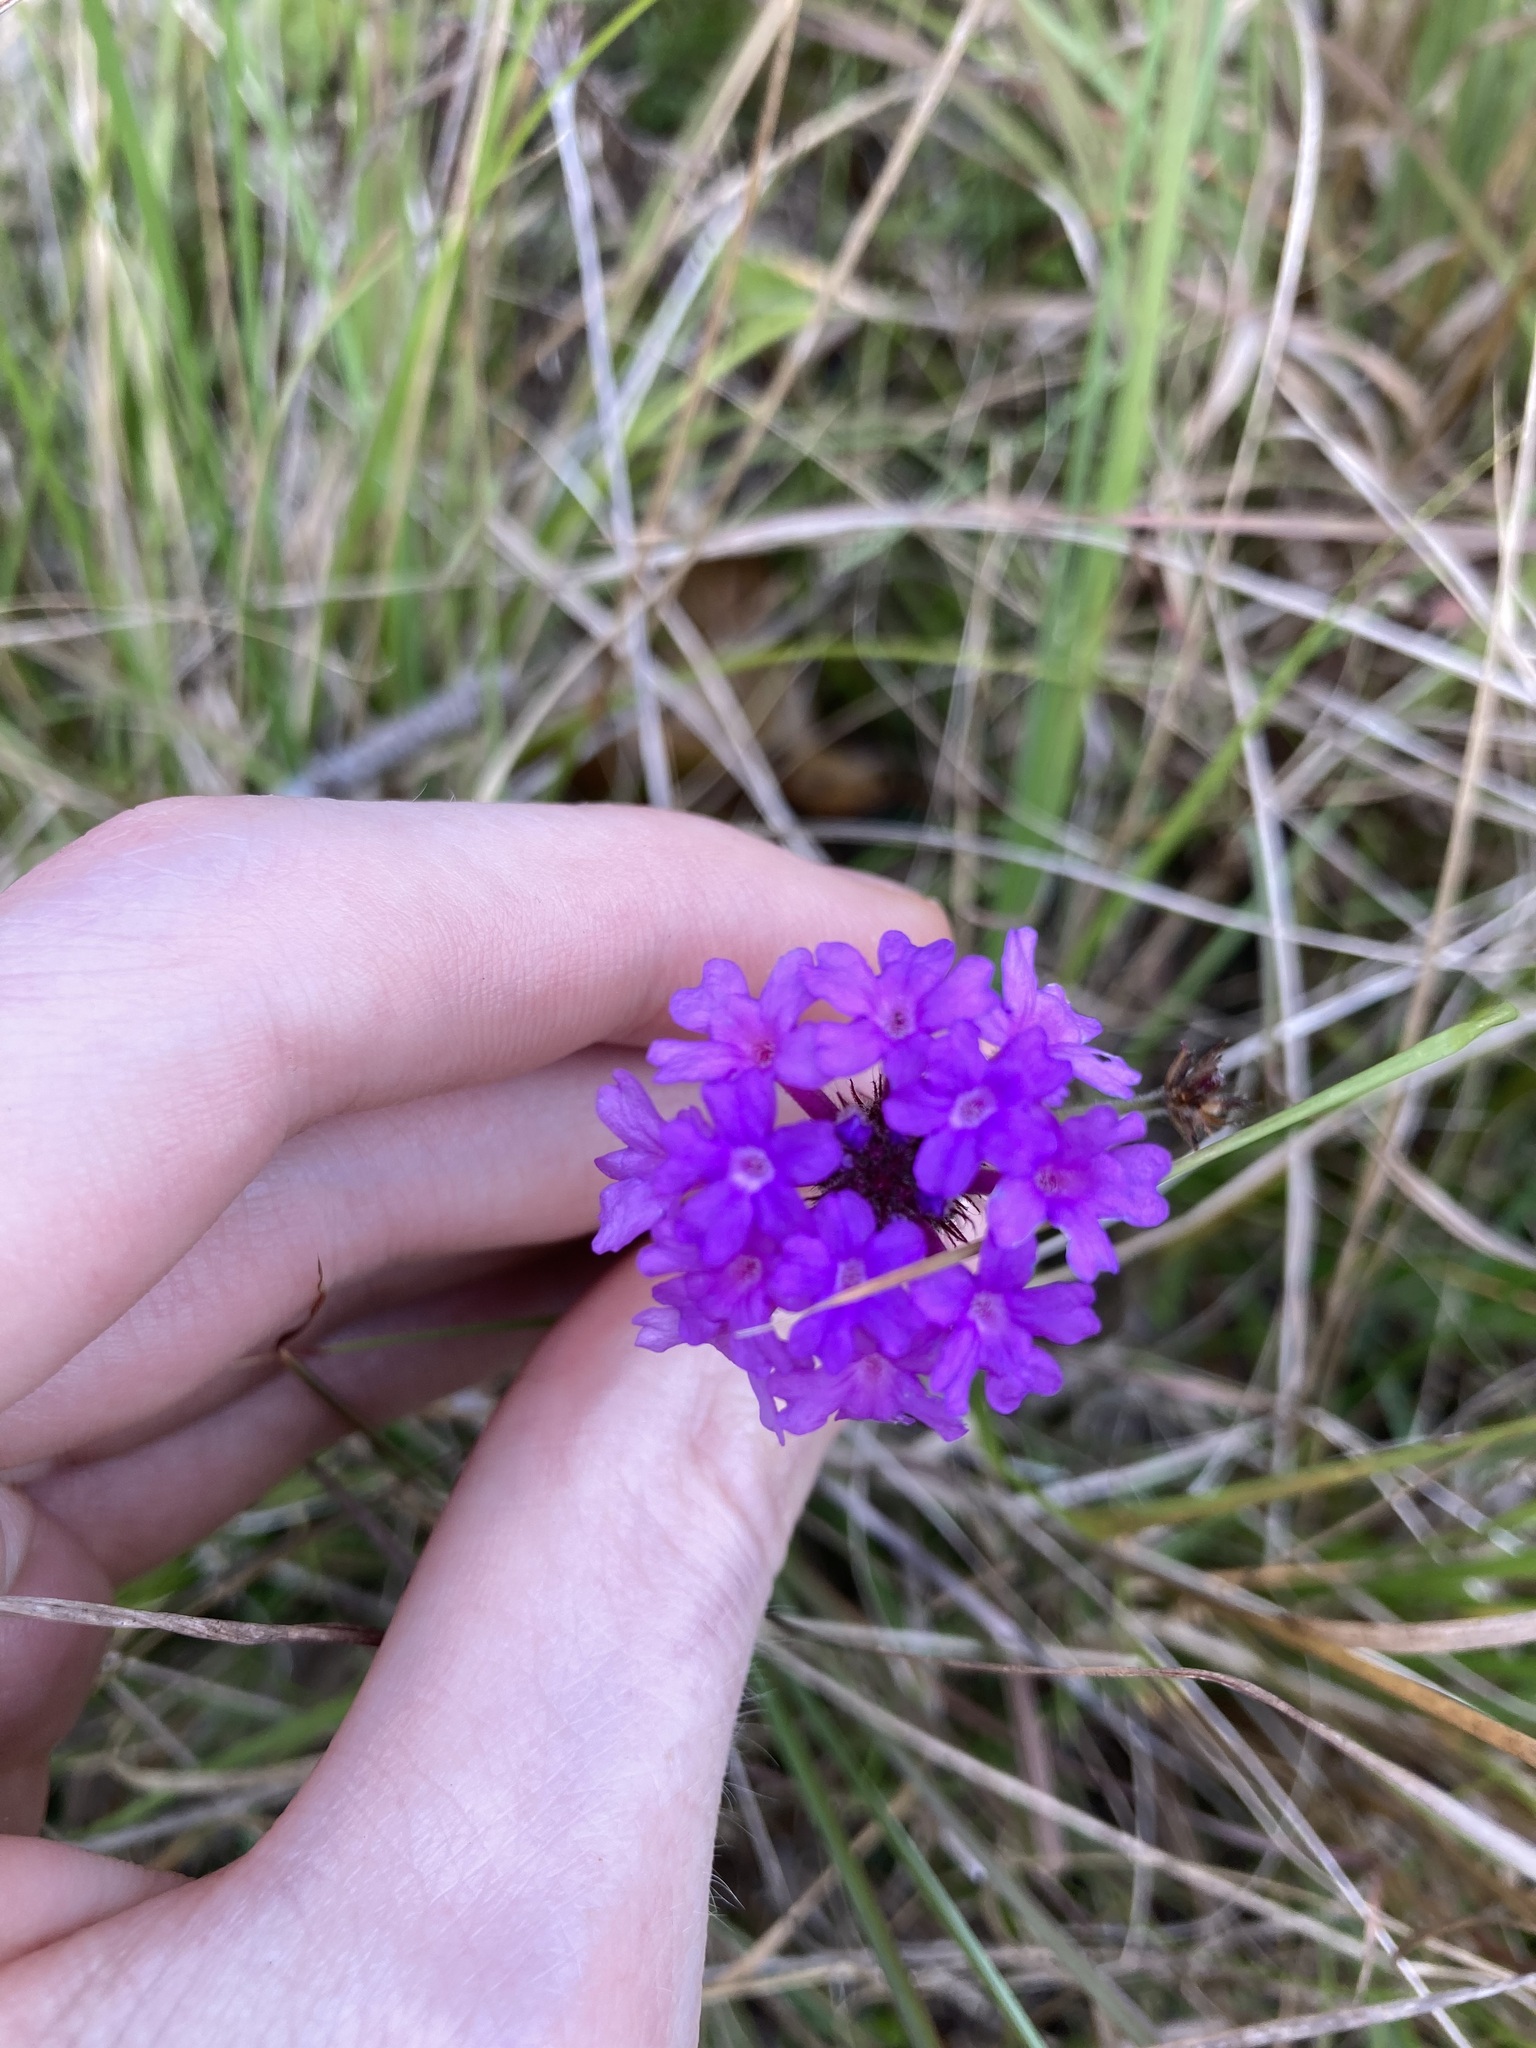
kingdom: Plantae
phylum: Tracheophyta
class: Magnoliopsida
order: Lamiales
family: Verbenaceae
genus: Verbena
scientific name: Verbena rigida
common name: Slender vervain
